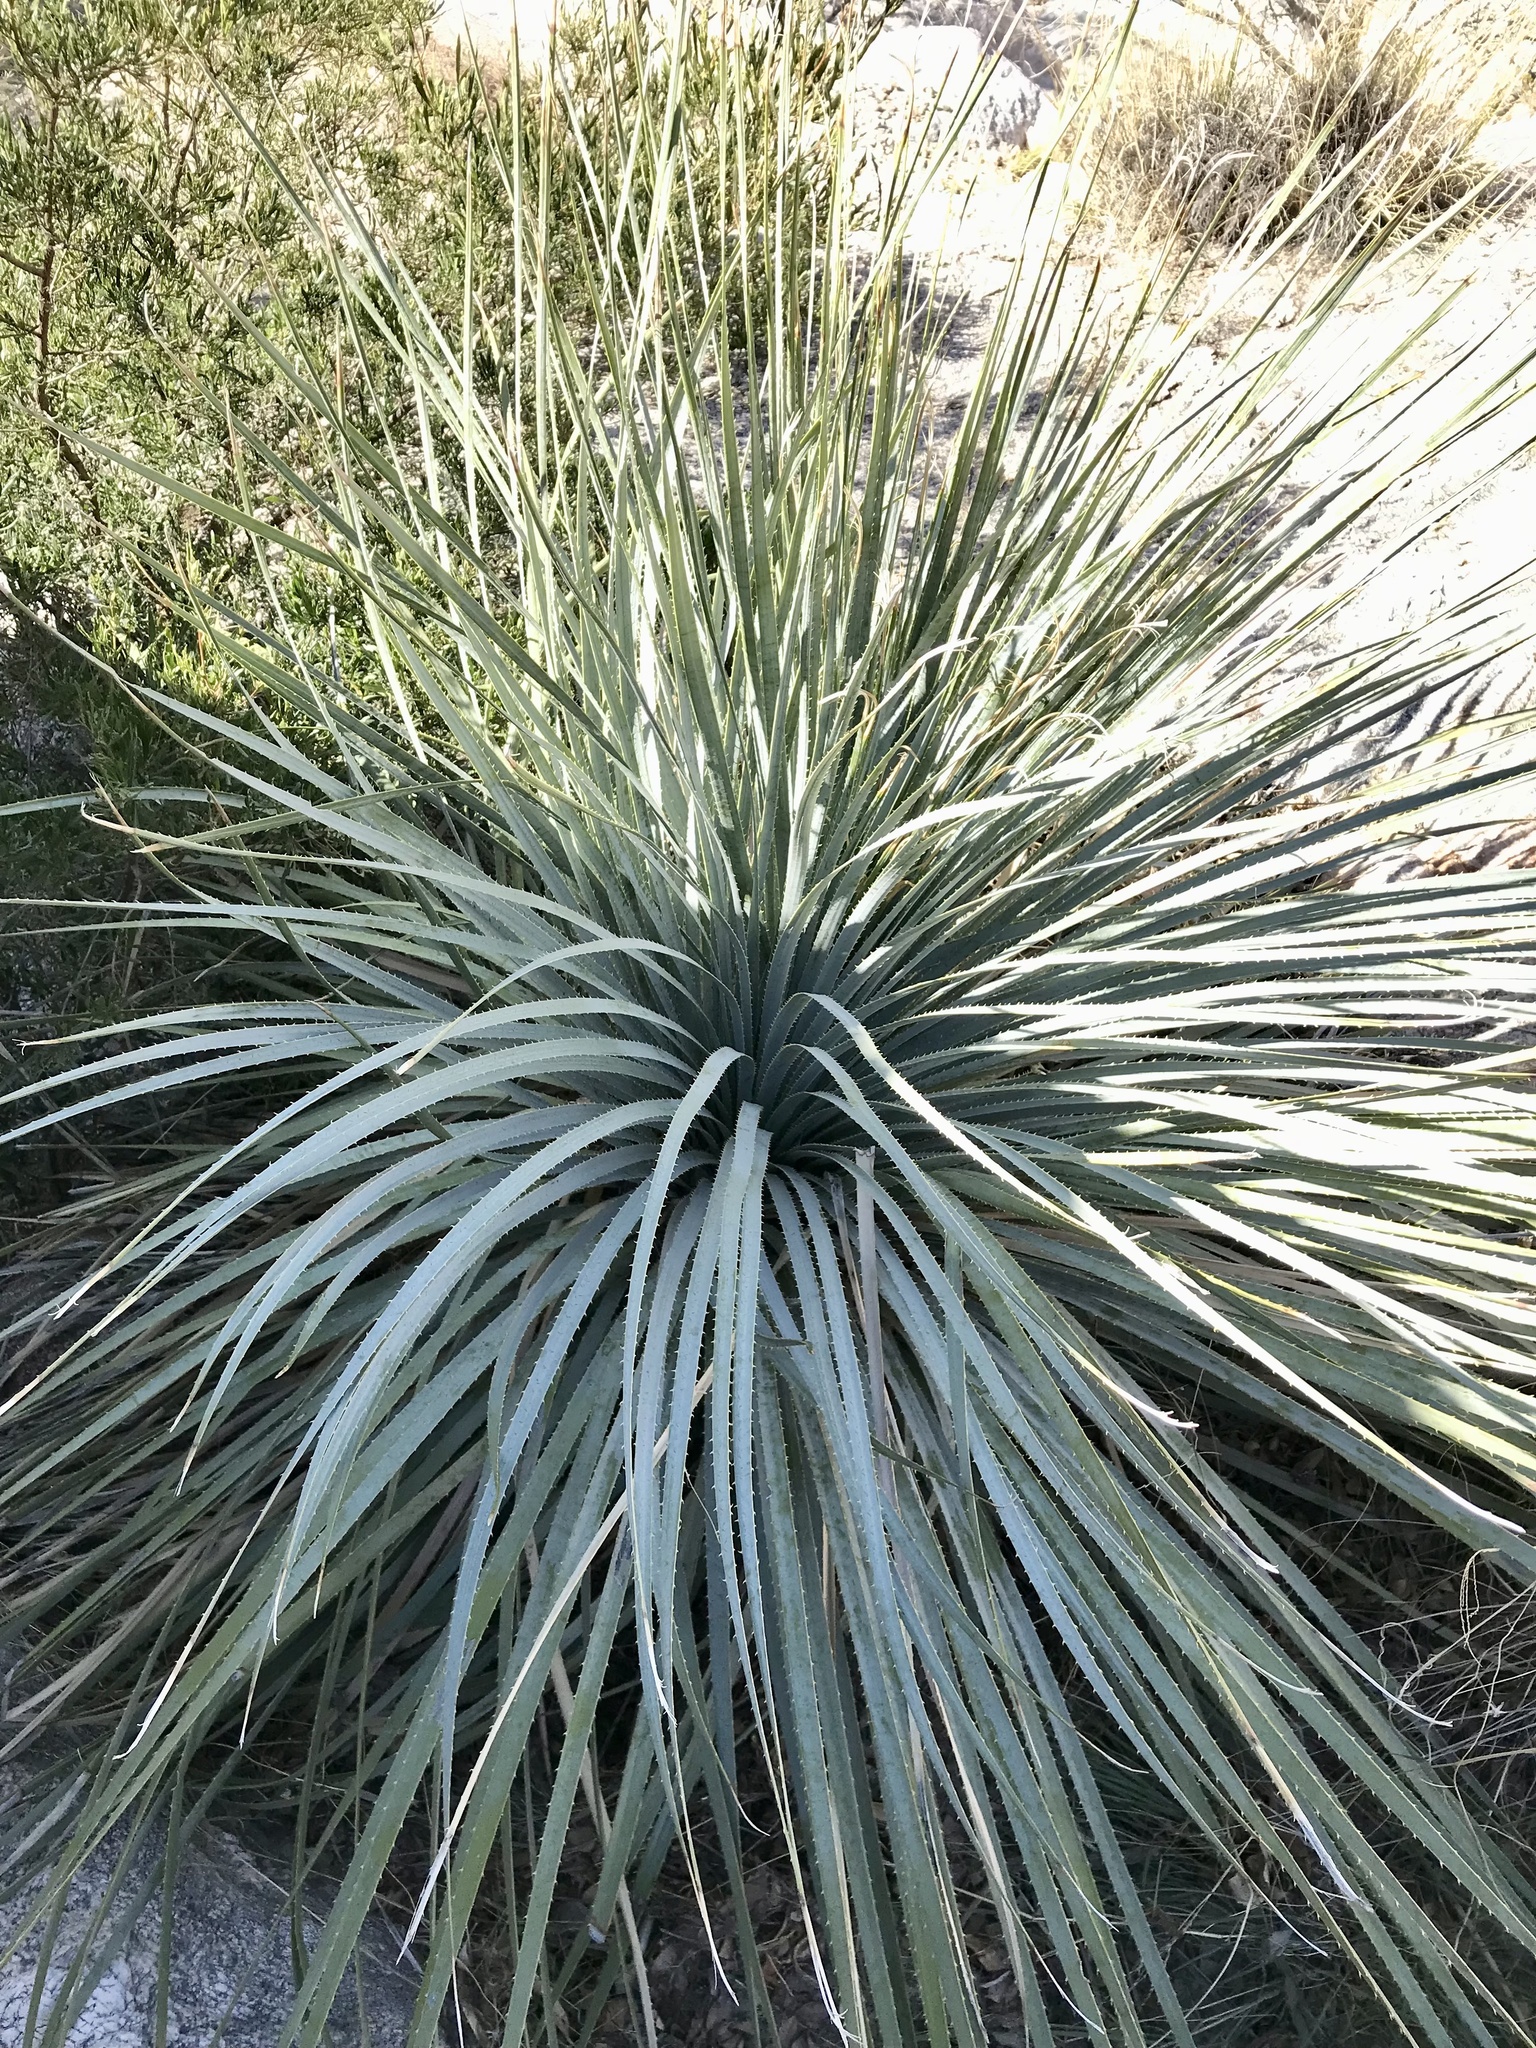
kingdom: Plantae
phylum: Tracheophyta
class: Liliopsida
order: Asparagales
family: Asparagaceae
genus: Dasylirion
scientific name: Dasylirion wheeleri
